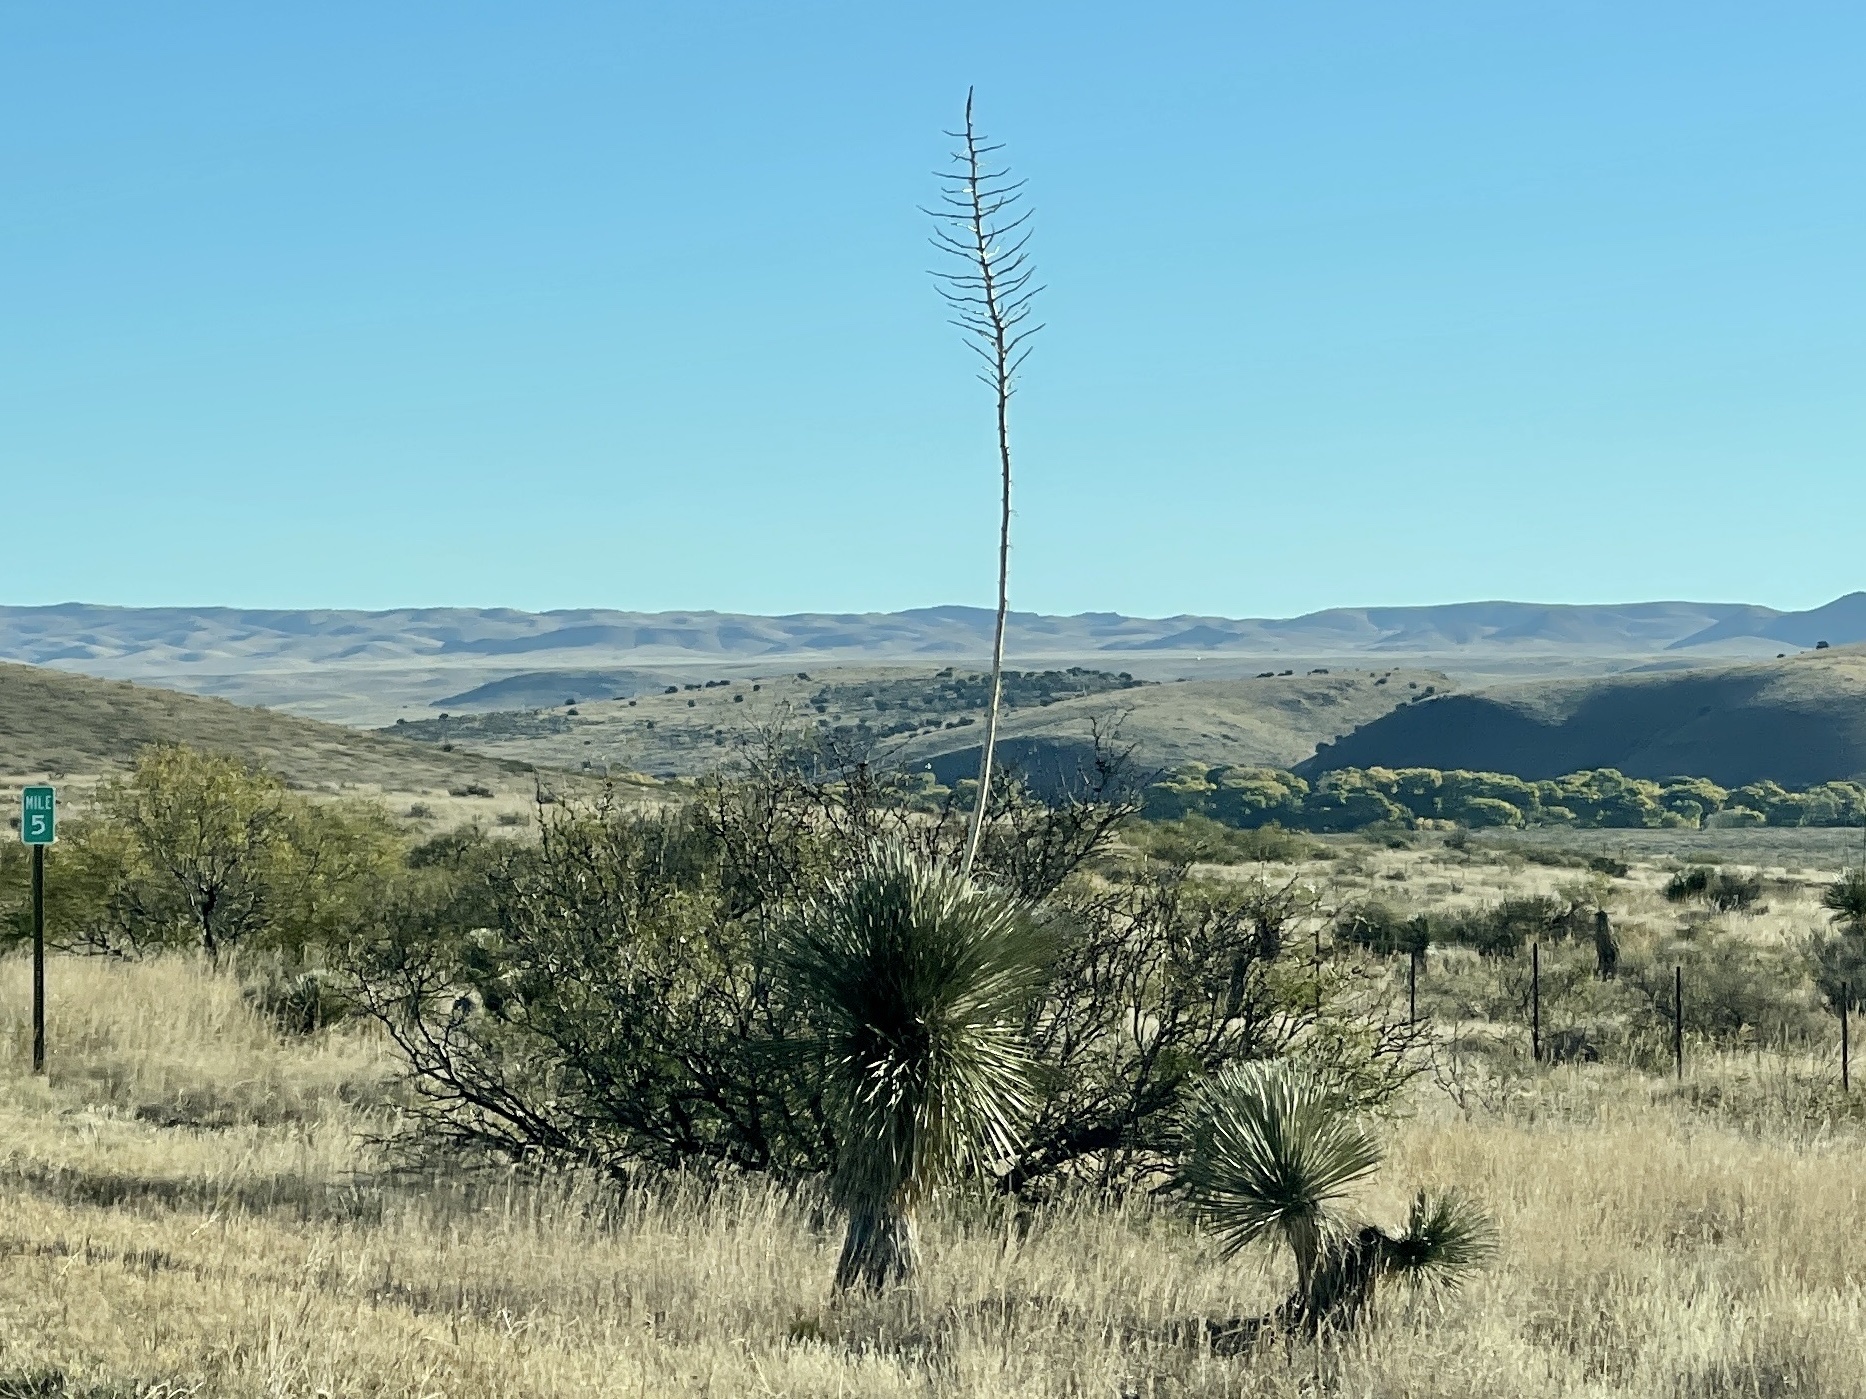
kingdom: Plantae
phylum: Tracheophyta
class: Liliopsida
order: Asparagales
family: Asparagaceae
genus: Yucca
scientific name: Yucca elata
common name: Palmella
